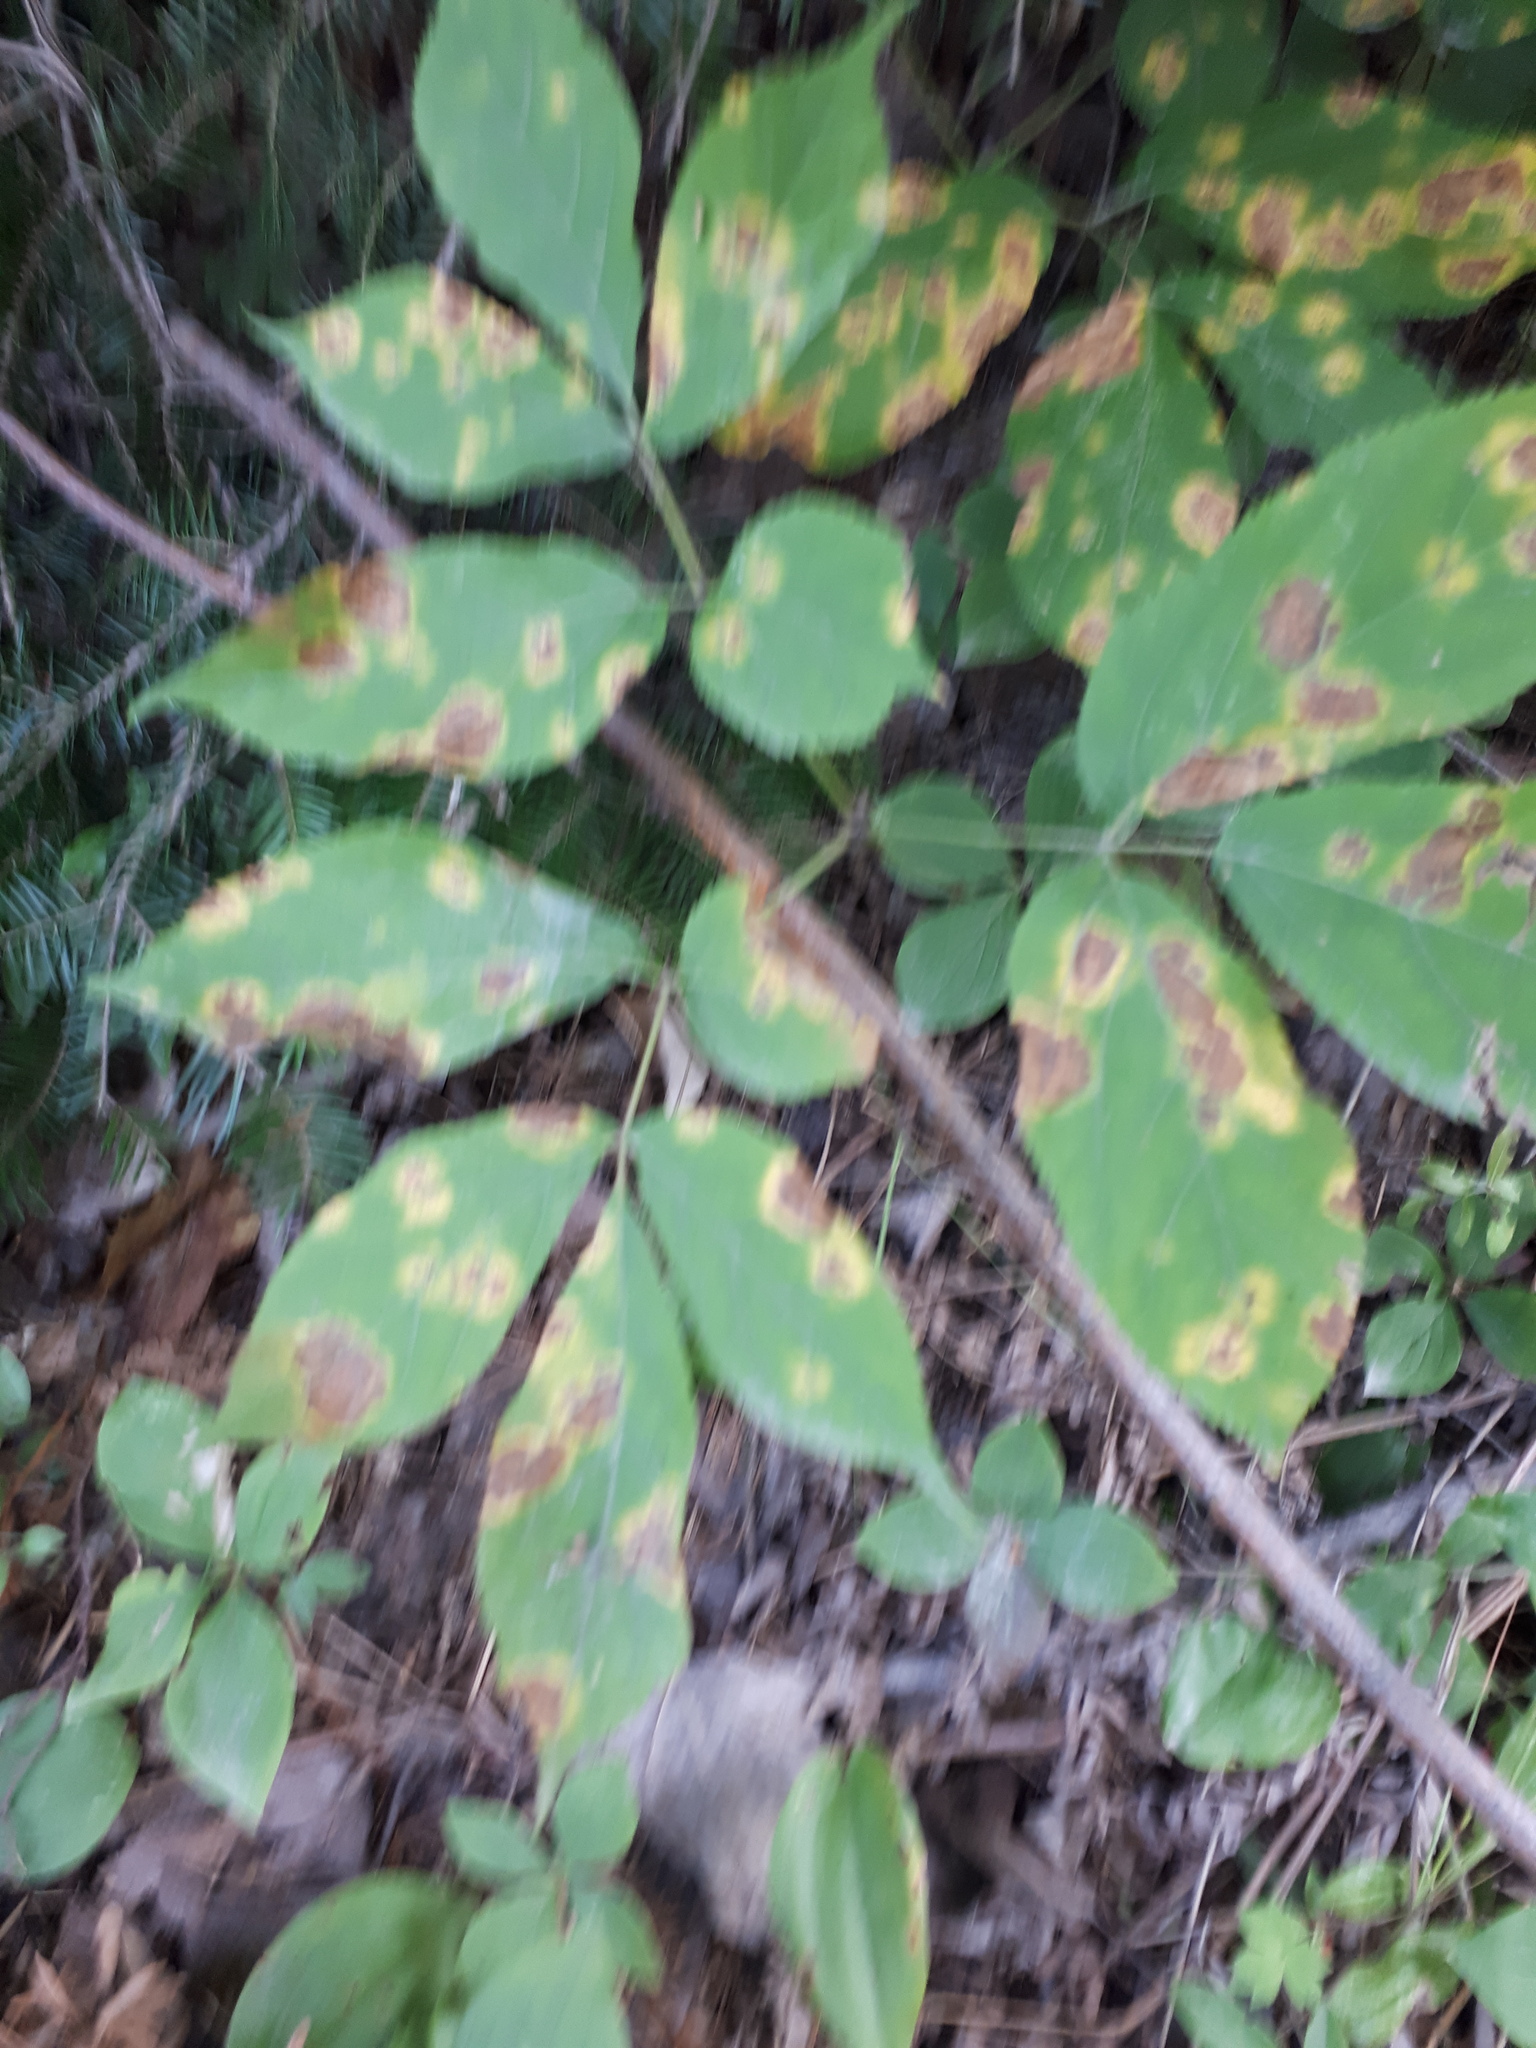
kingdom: Plantae
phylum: Tracheophyta
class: Magnoliopsida
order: Apiales
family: Araliaceae
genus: Aralia
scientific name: Aralia nudicaulis
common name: Wild sarsaparilla
